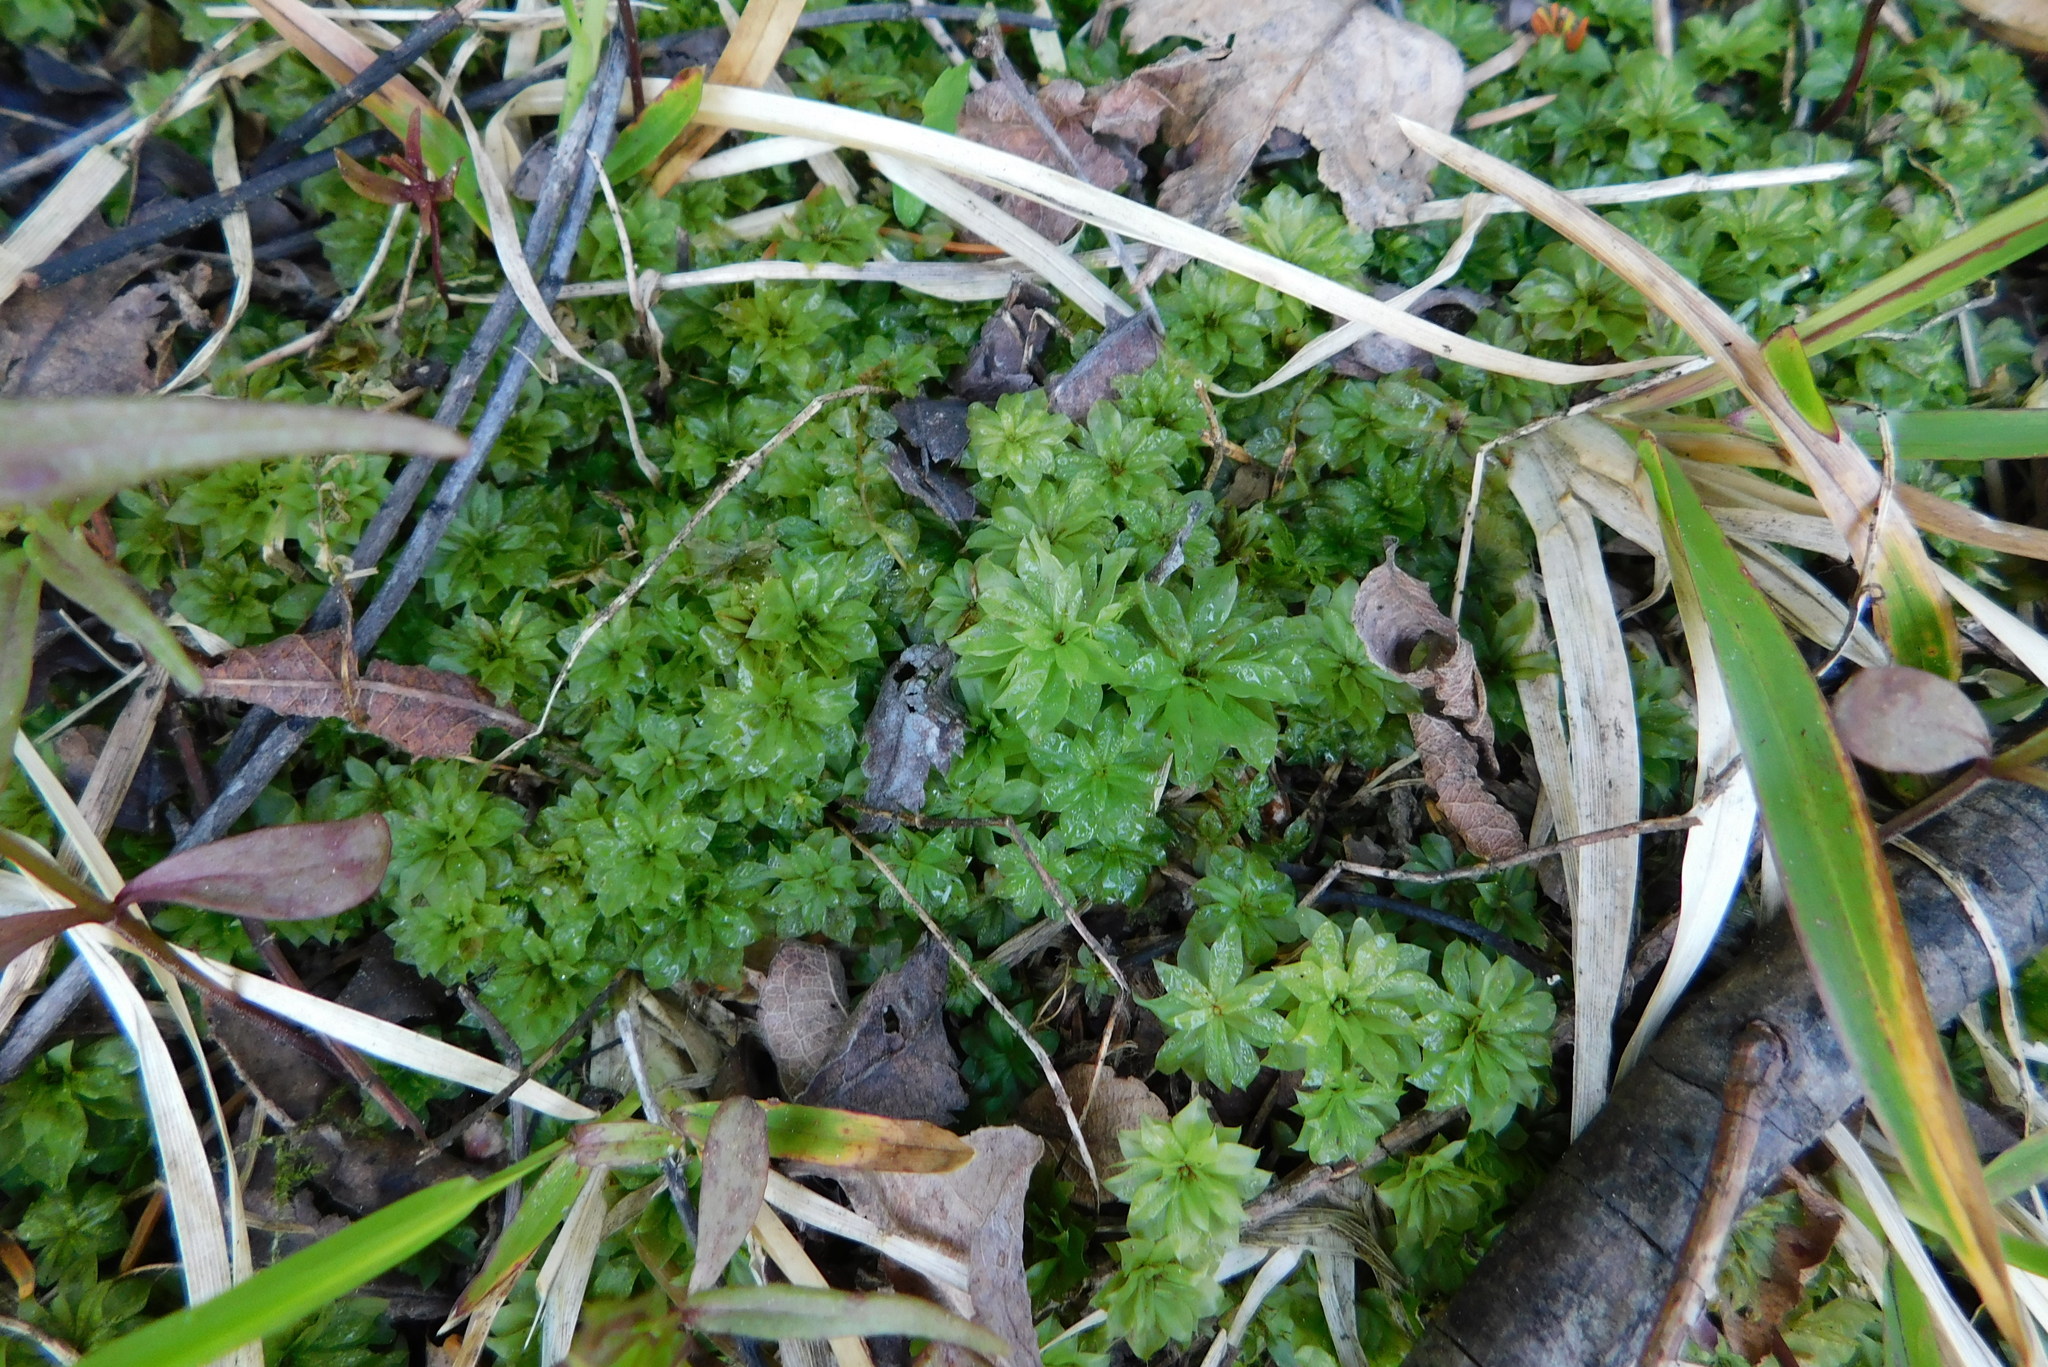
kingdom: Plantae
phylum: Bryophyta
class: Bryopsida
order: Bryales
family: Bryaceae
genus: Rhodobryum
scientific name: Rhodobryum ontariense
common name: Ontario rhodobryum moss
